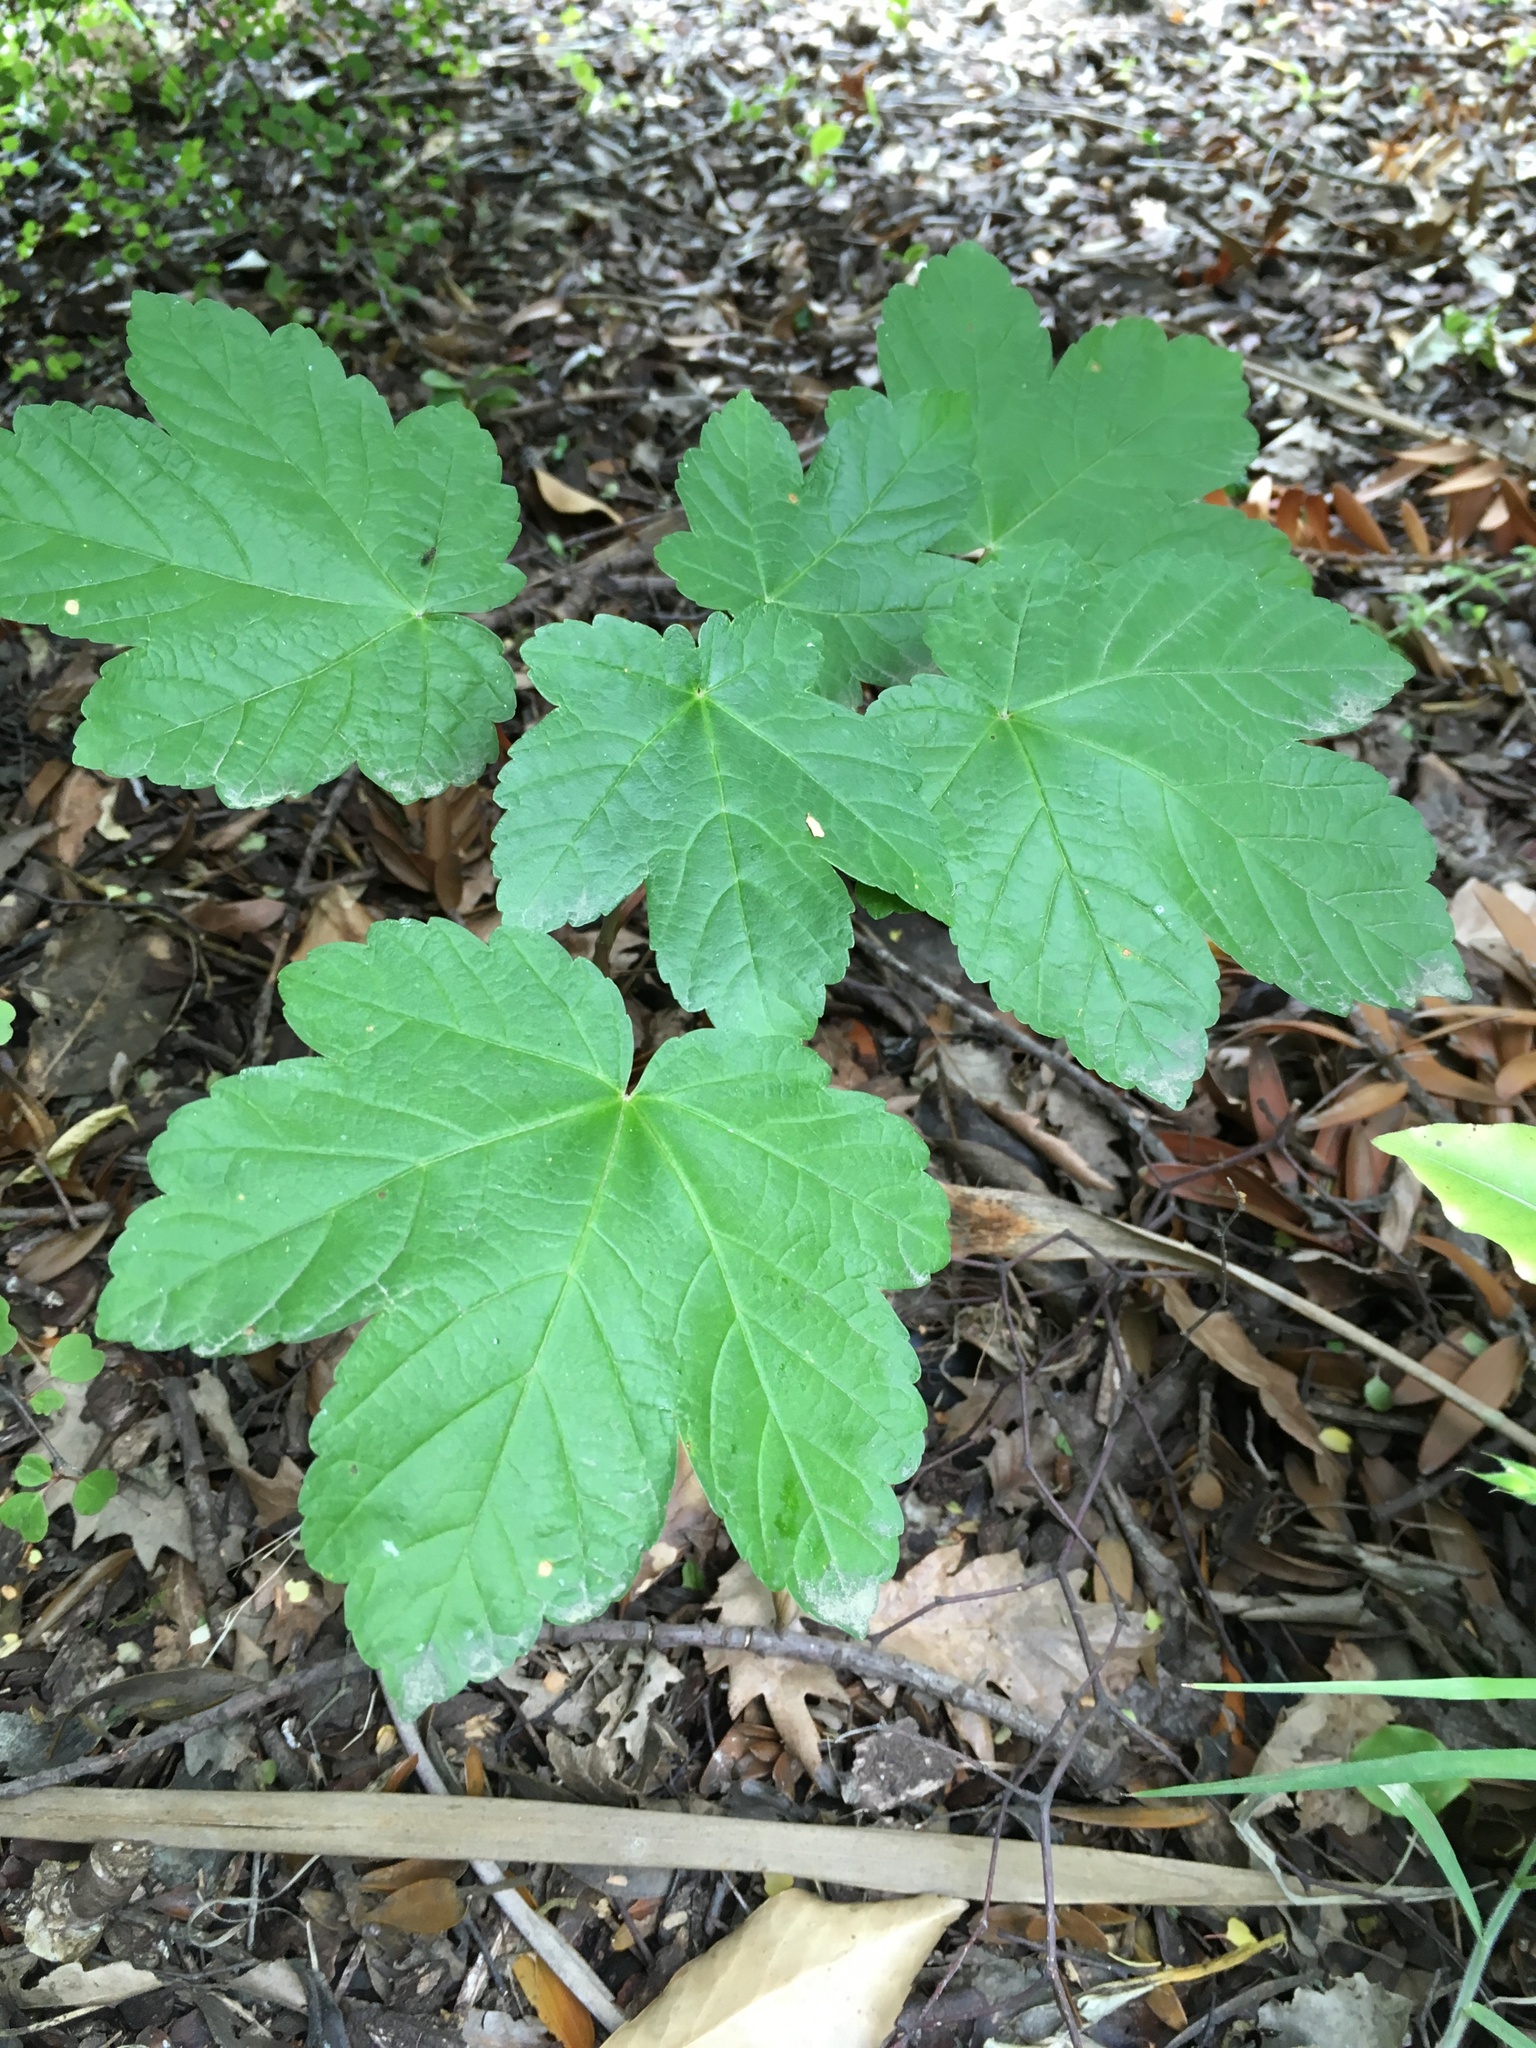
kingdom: Plantae
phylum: Tracheophyta
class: Magnoliopsida
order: Sapindales
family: Sapindaceae
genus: Acer
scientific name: Acer pseudoplatanus
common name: Sycamore
